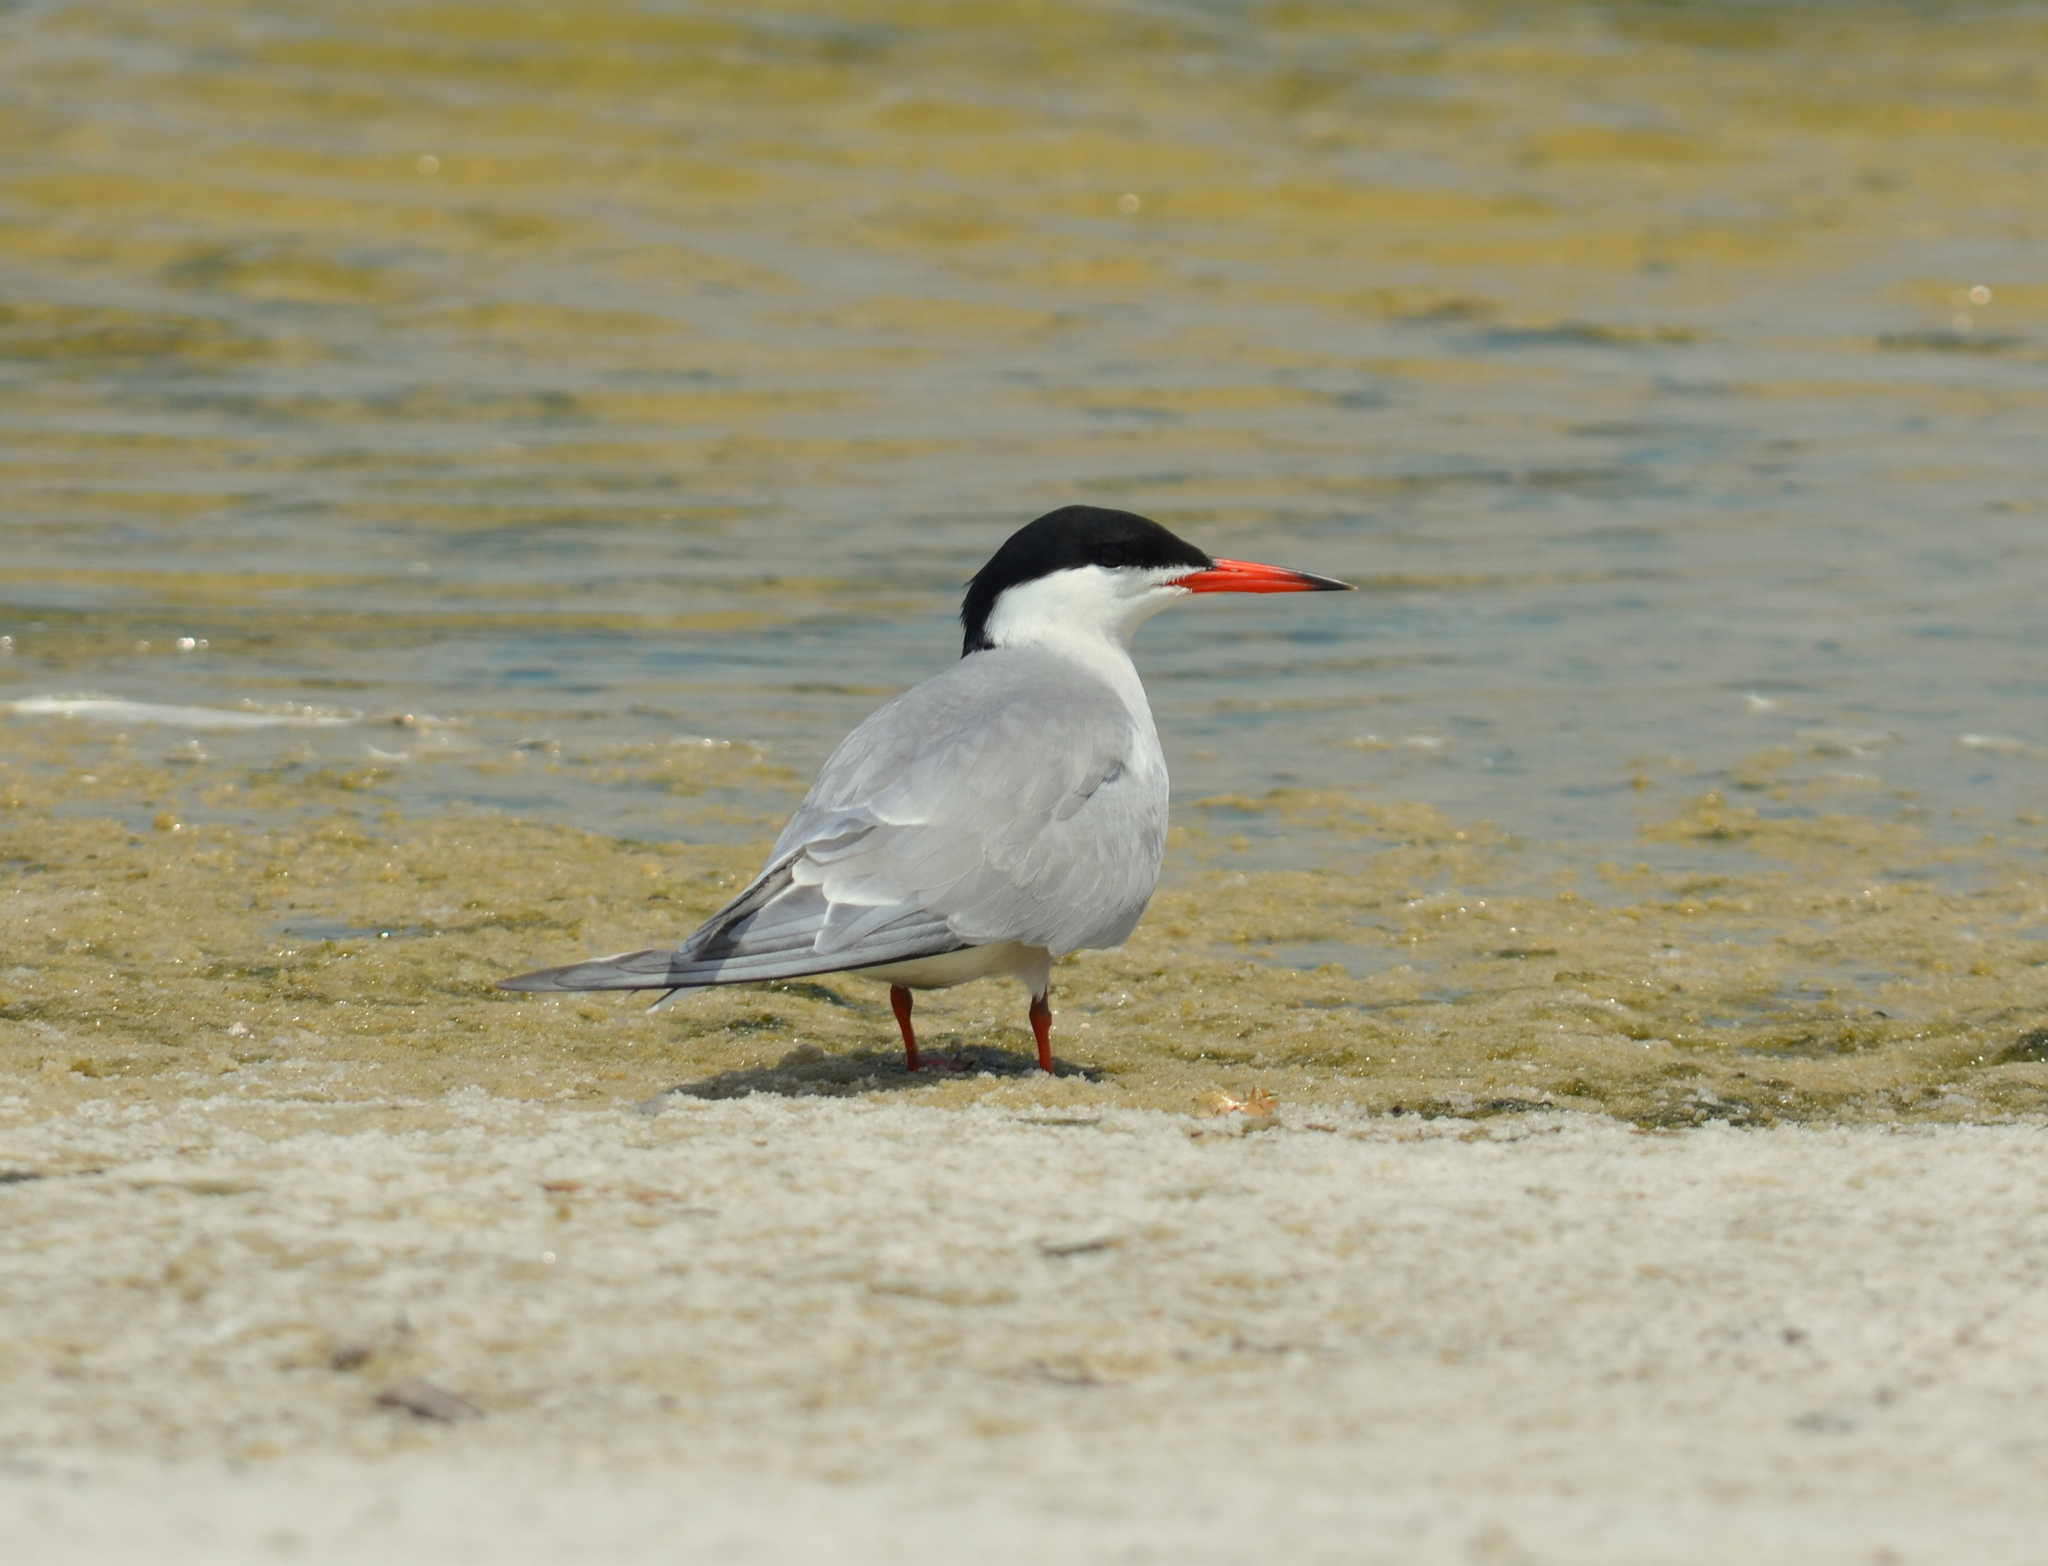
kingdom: Animalia
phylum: Chordata
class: Aves
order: Charadriiformes
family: Laridae
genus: Sterna
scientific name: Sterna hirundo
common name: Common tern
